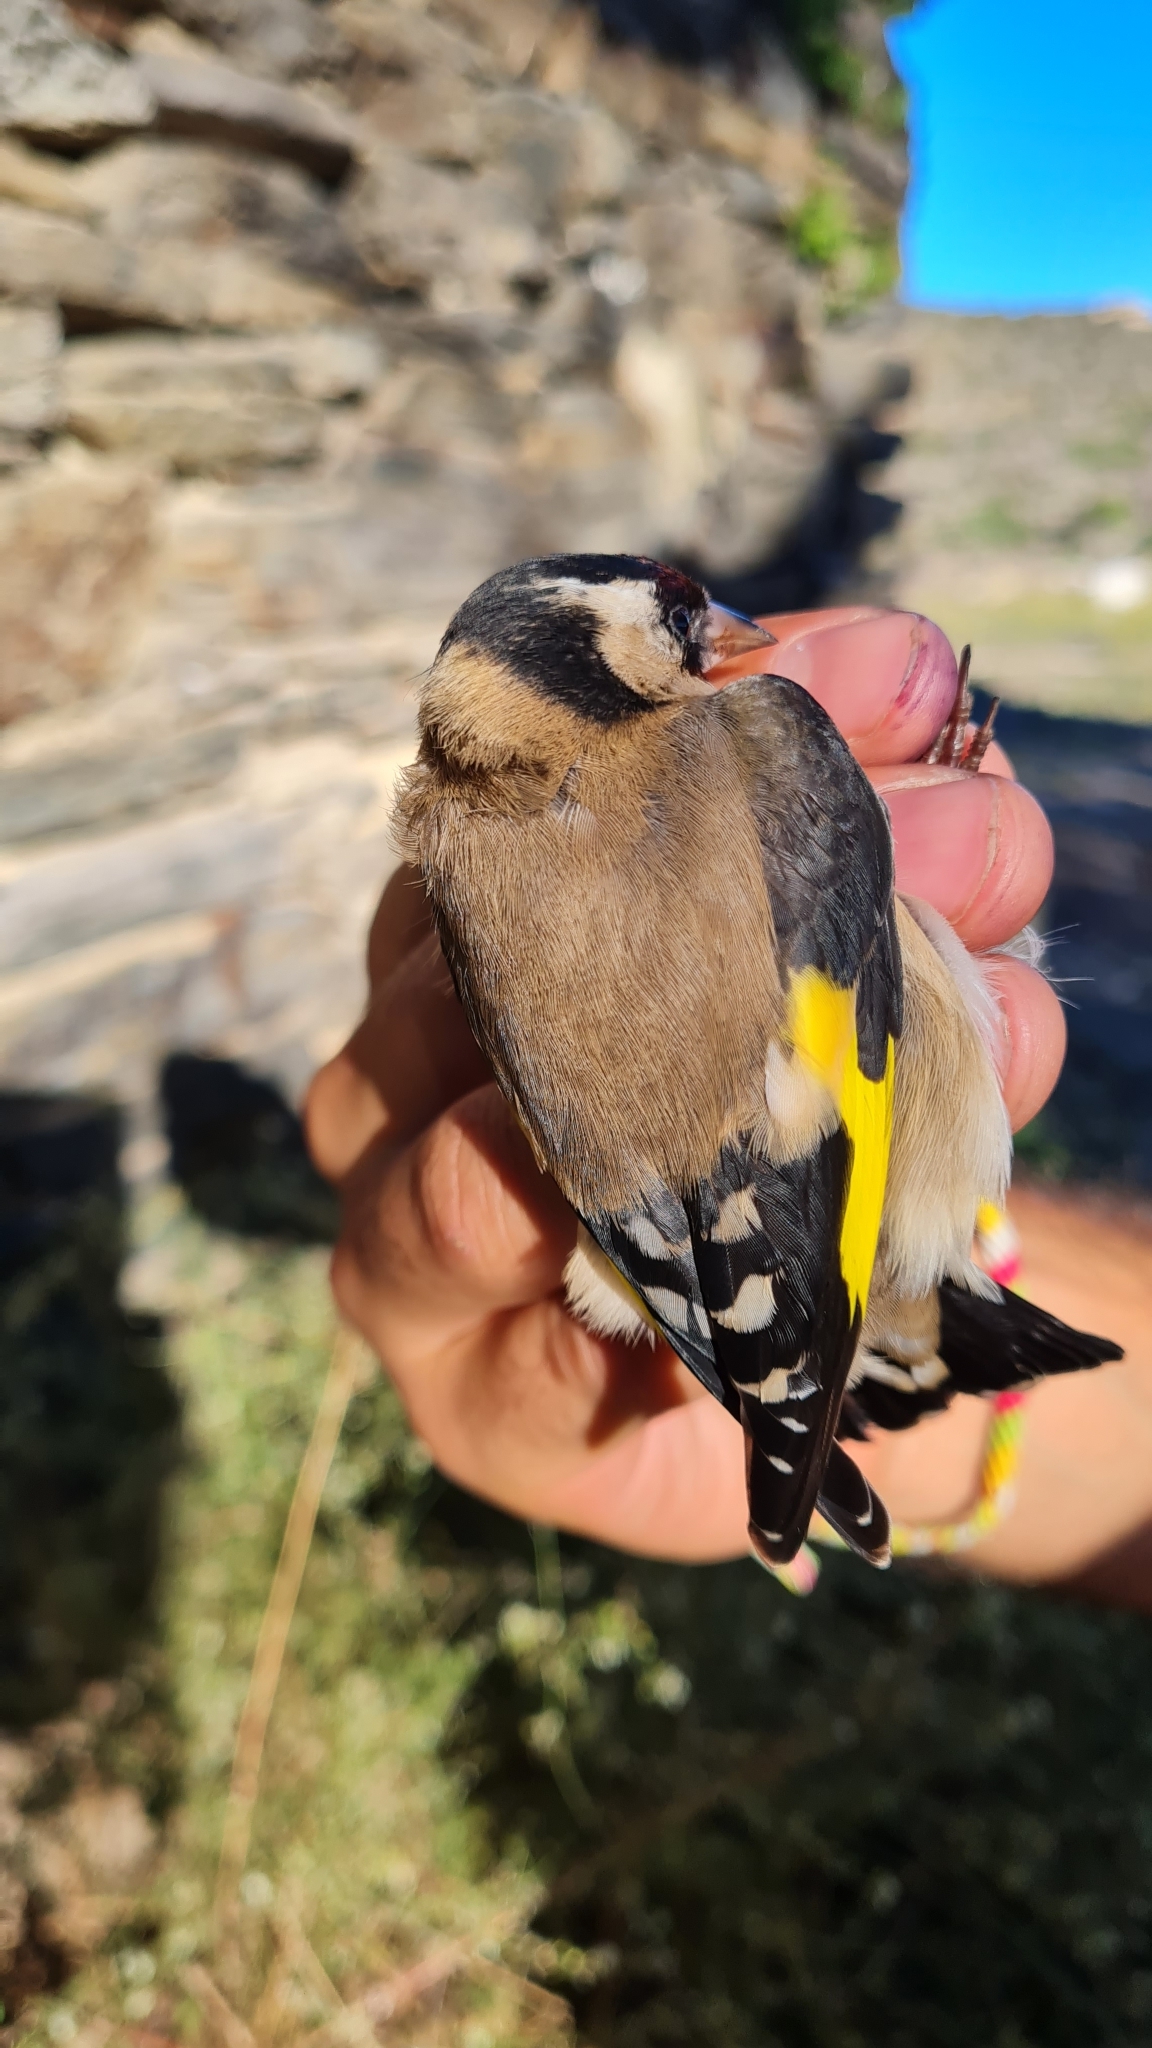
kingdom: Animalia
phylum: Chordata
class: Aves
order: Passeriformes
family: Fringillidae
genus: Carduelis
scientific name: Carduelis carduelis
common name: European goldfinch
